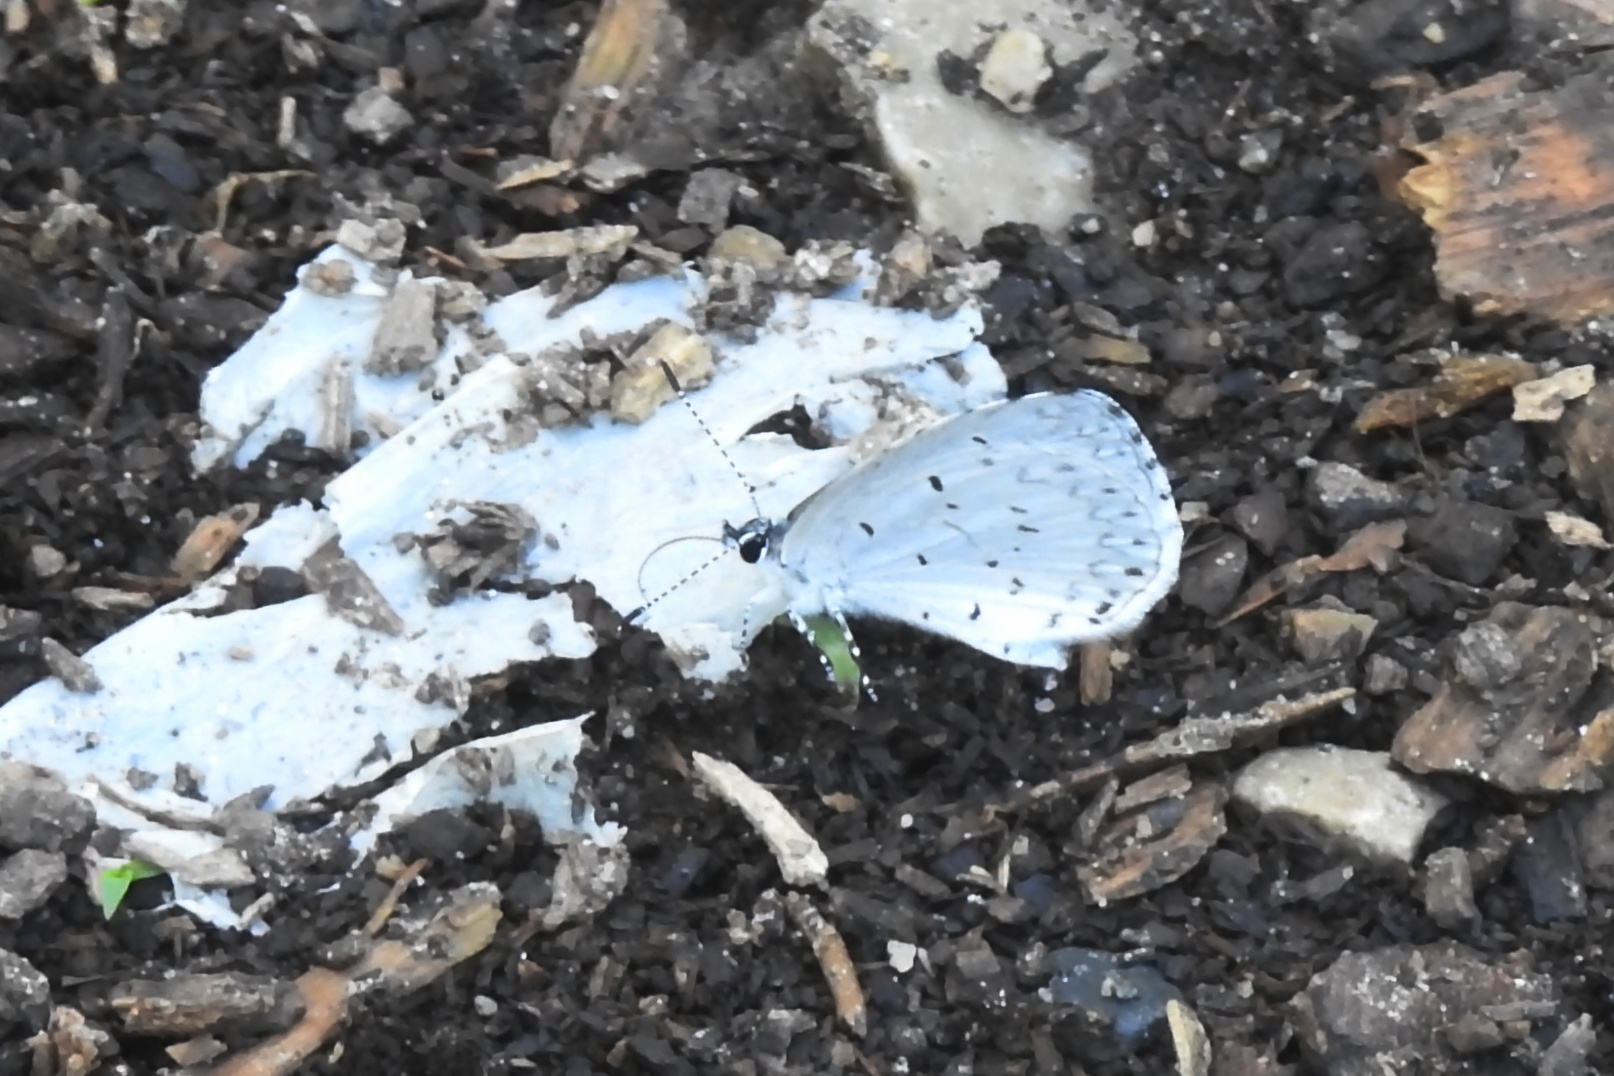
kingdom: Animalia
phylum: Arthropoda
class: Insecta
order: Lepidoptera
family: Lycaenidae
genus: Cyaniris
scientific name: Cyaniris neglecta
